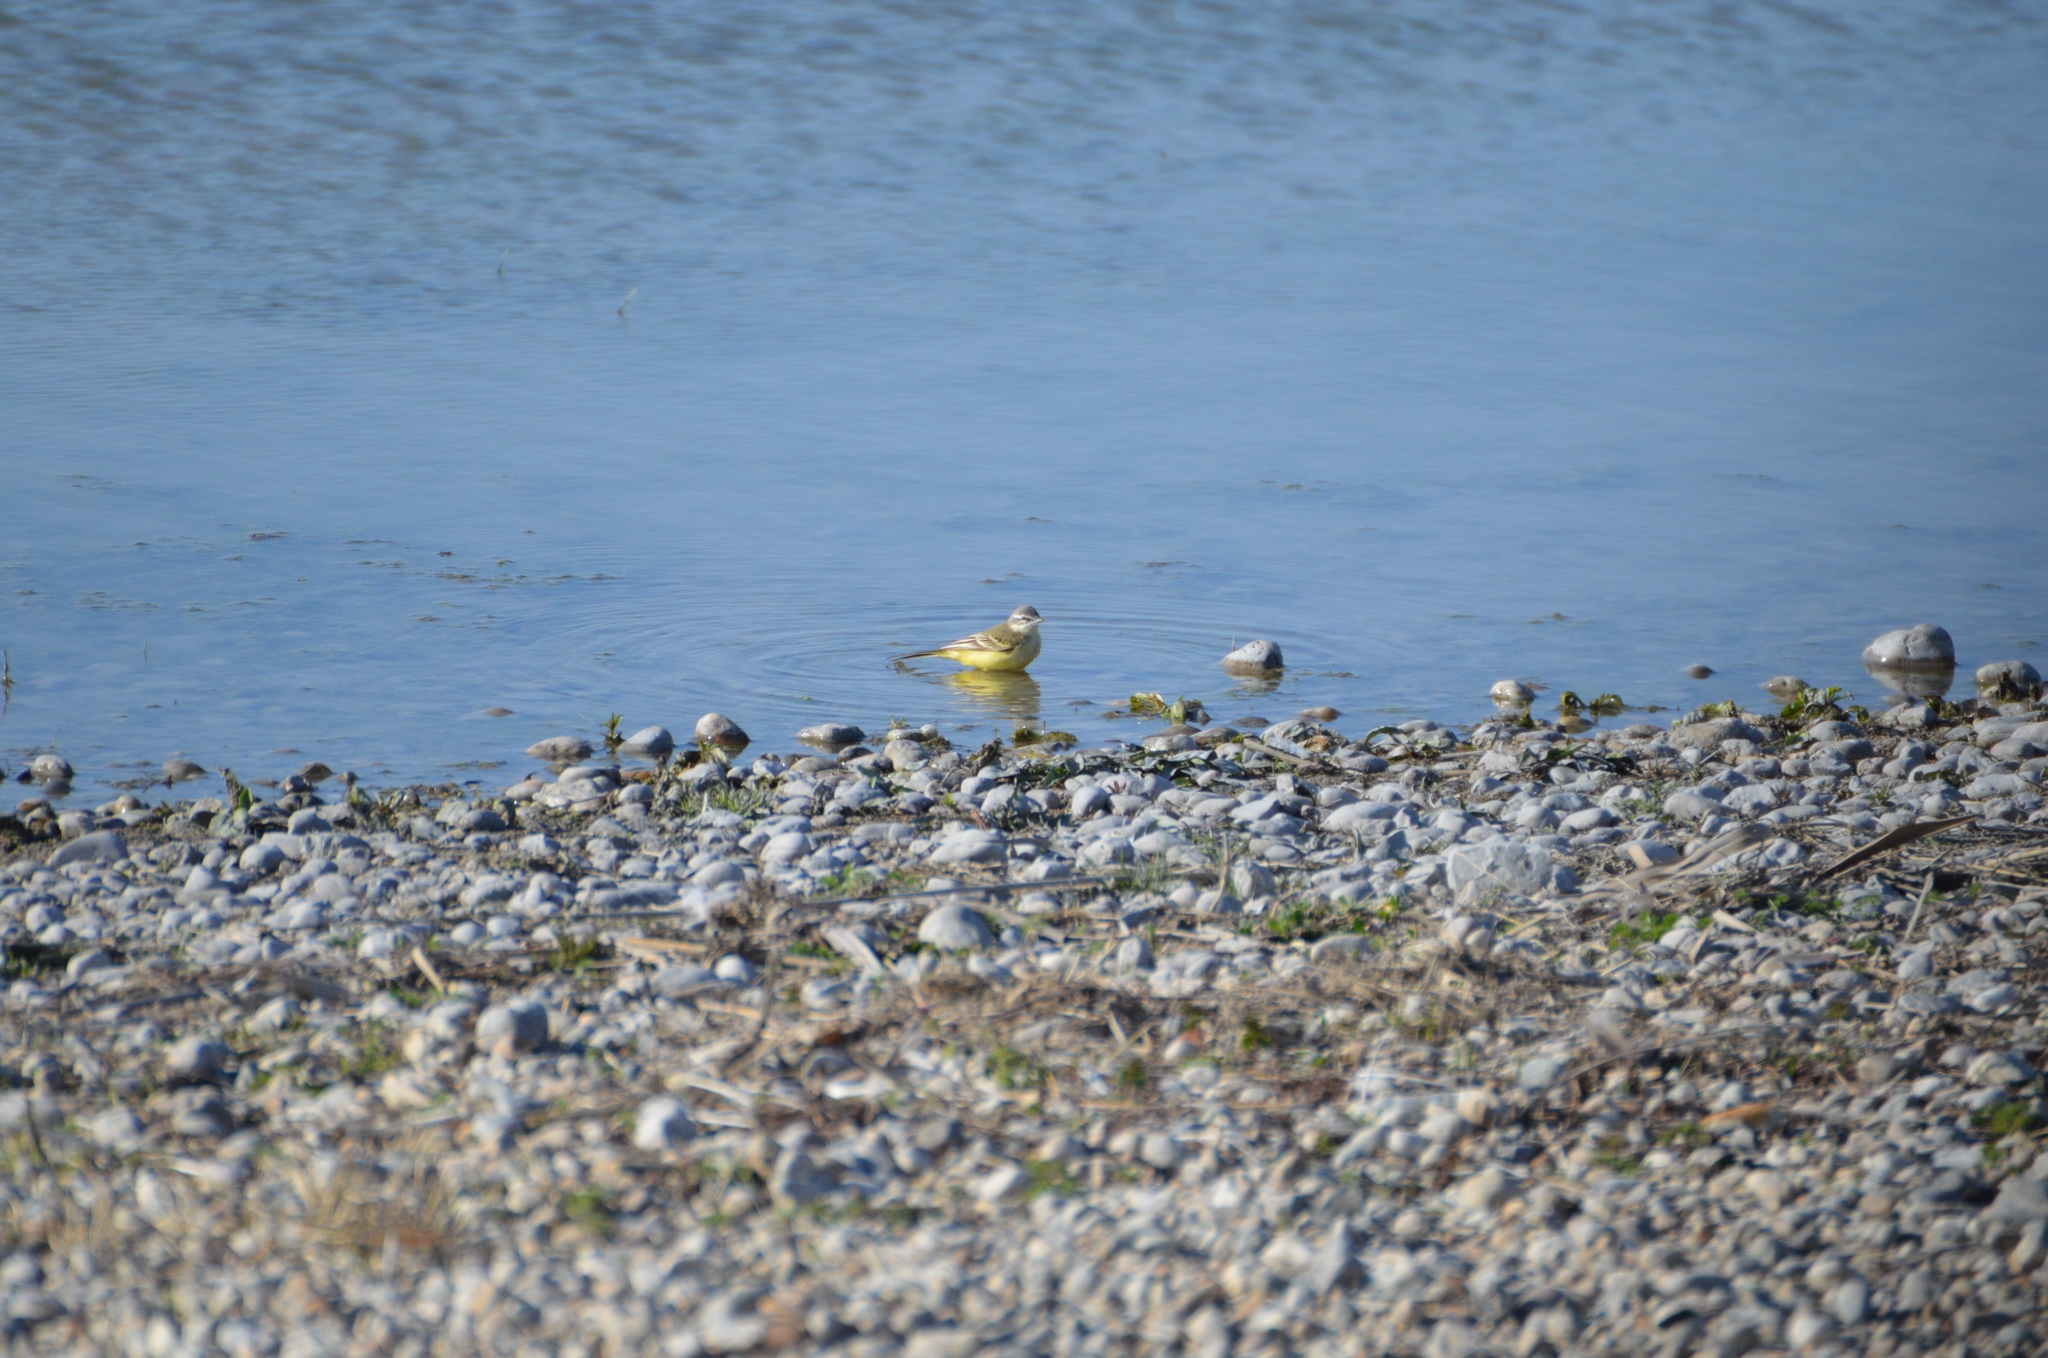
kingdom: Animalia
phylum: Chordata
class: Aves
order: Passeriformes
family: Motacillidae
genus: Motacilla
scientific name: Motacilla flava
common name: Western yellow wagtail
